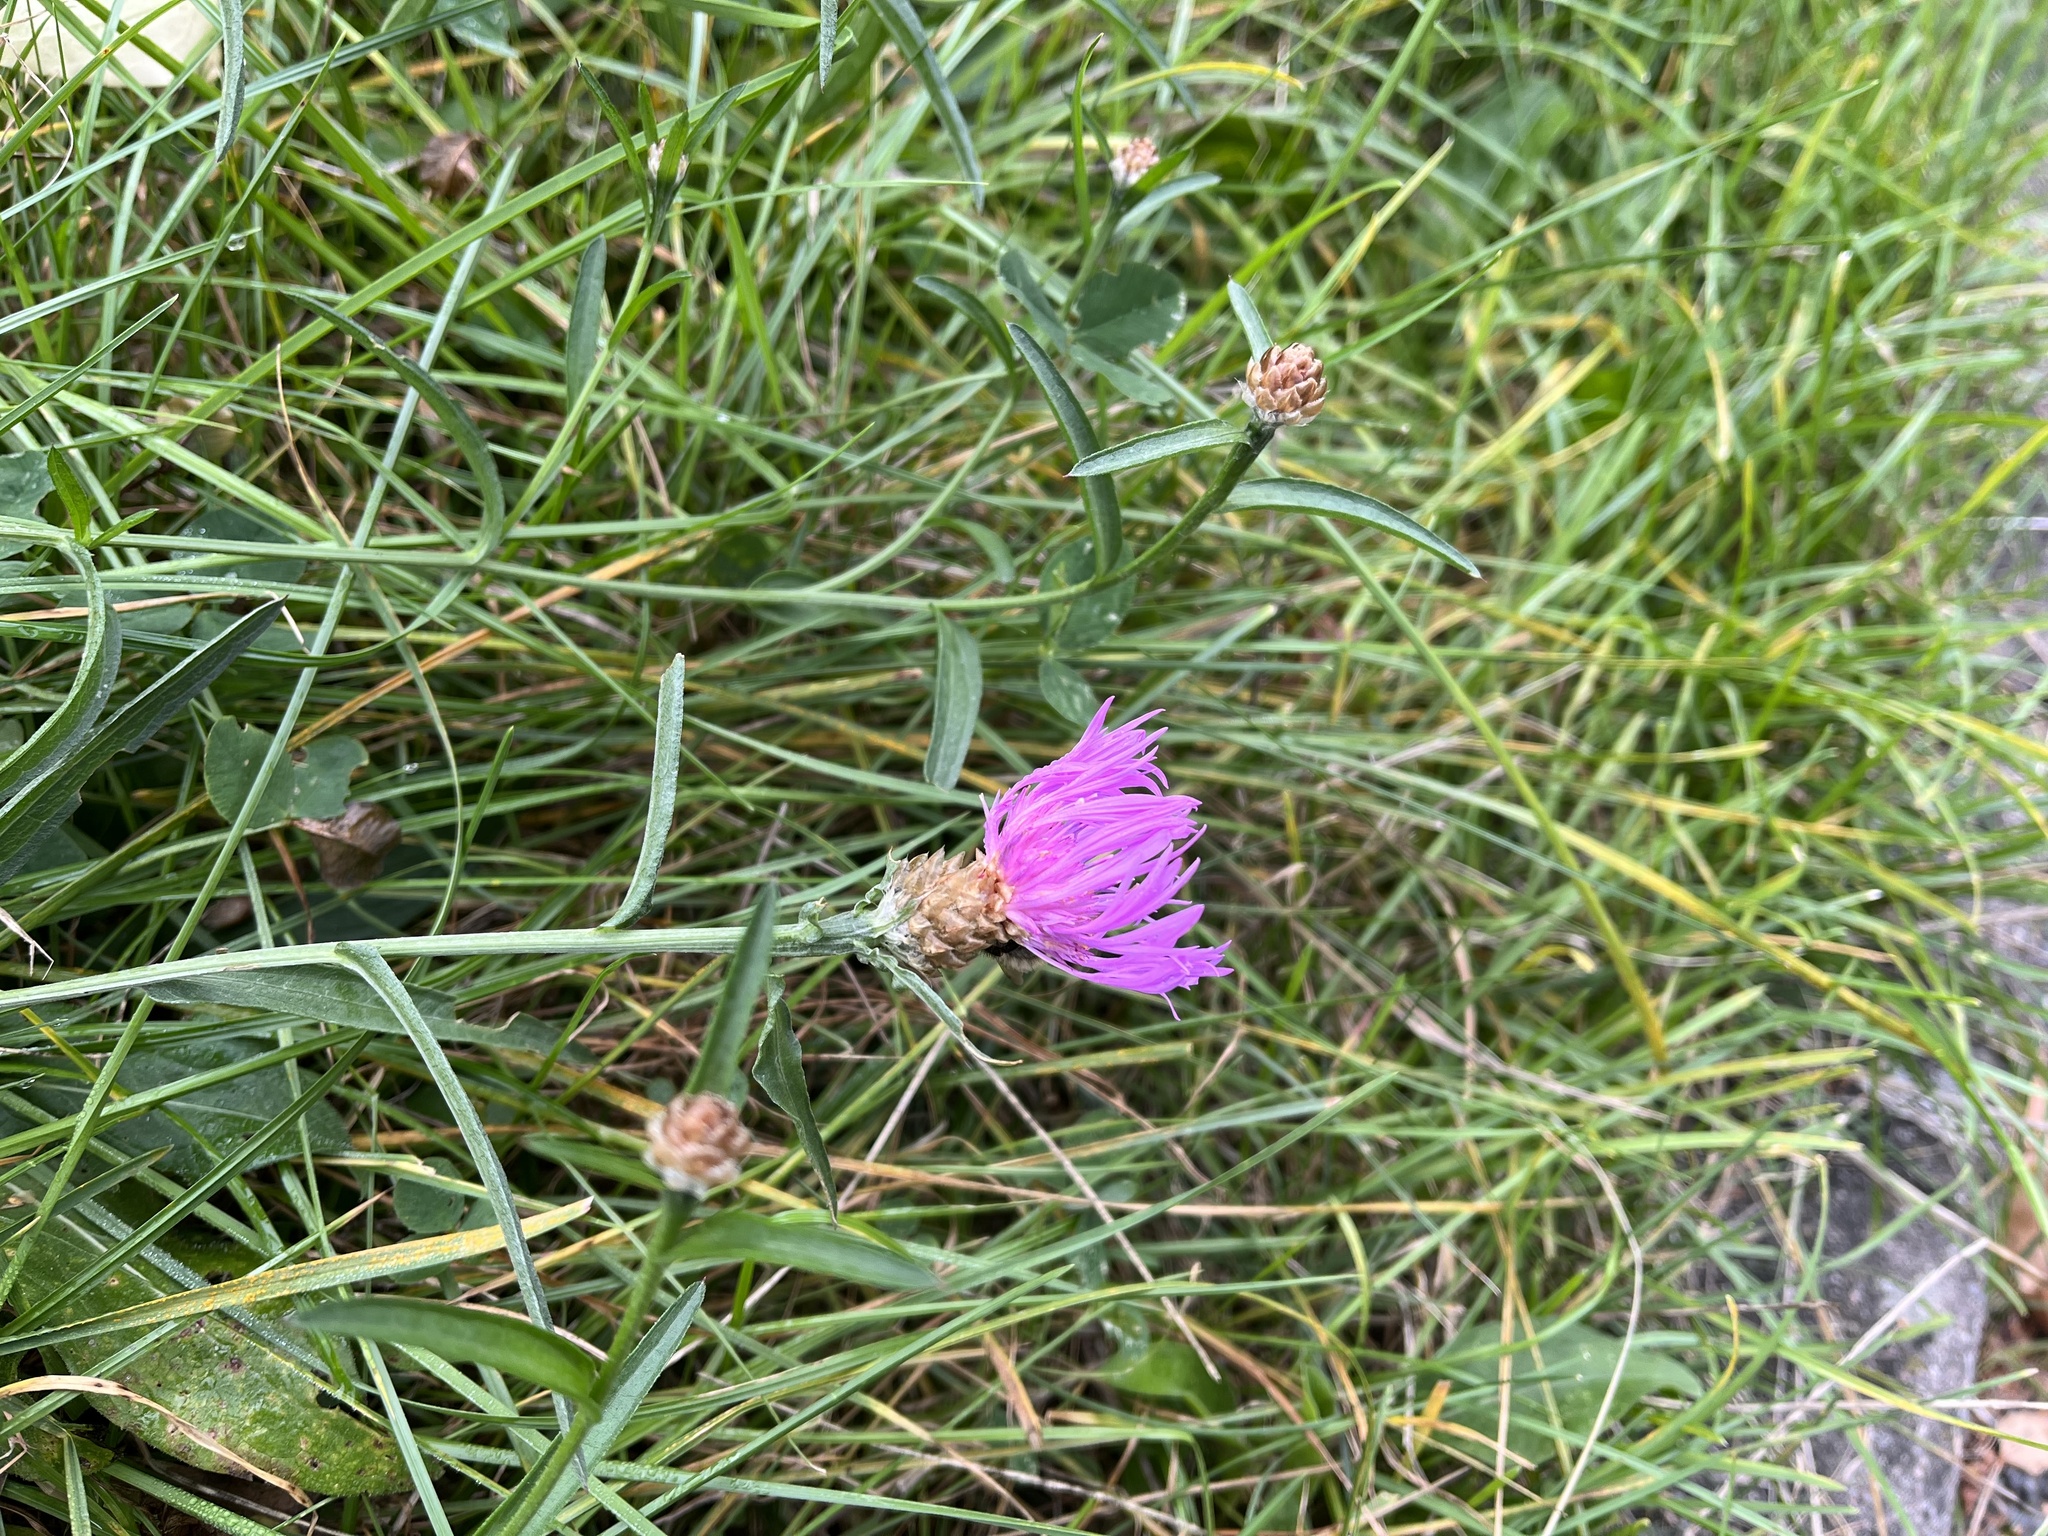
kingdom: Plantae
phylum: Tracheophyta
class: Magnoliopsida
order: Asterales
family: Asteraceae
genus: Centaurea
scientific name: Centaurea jacea
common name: Brown knapweed
